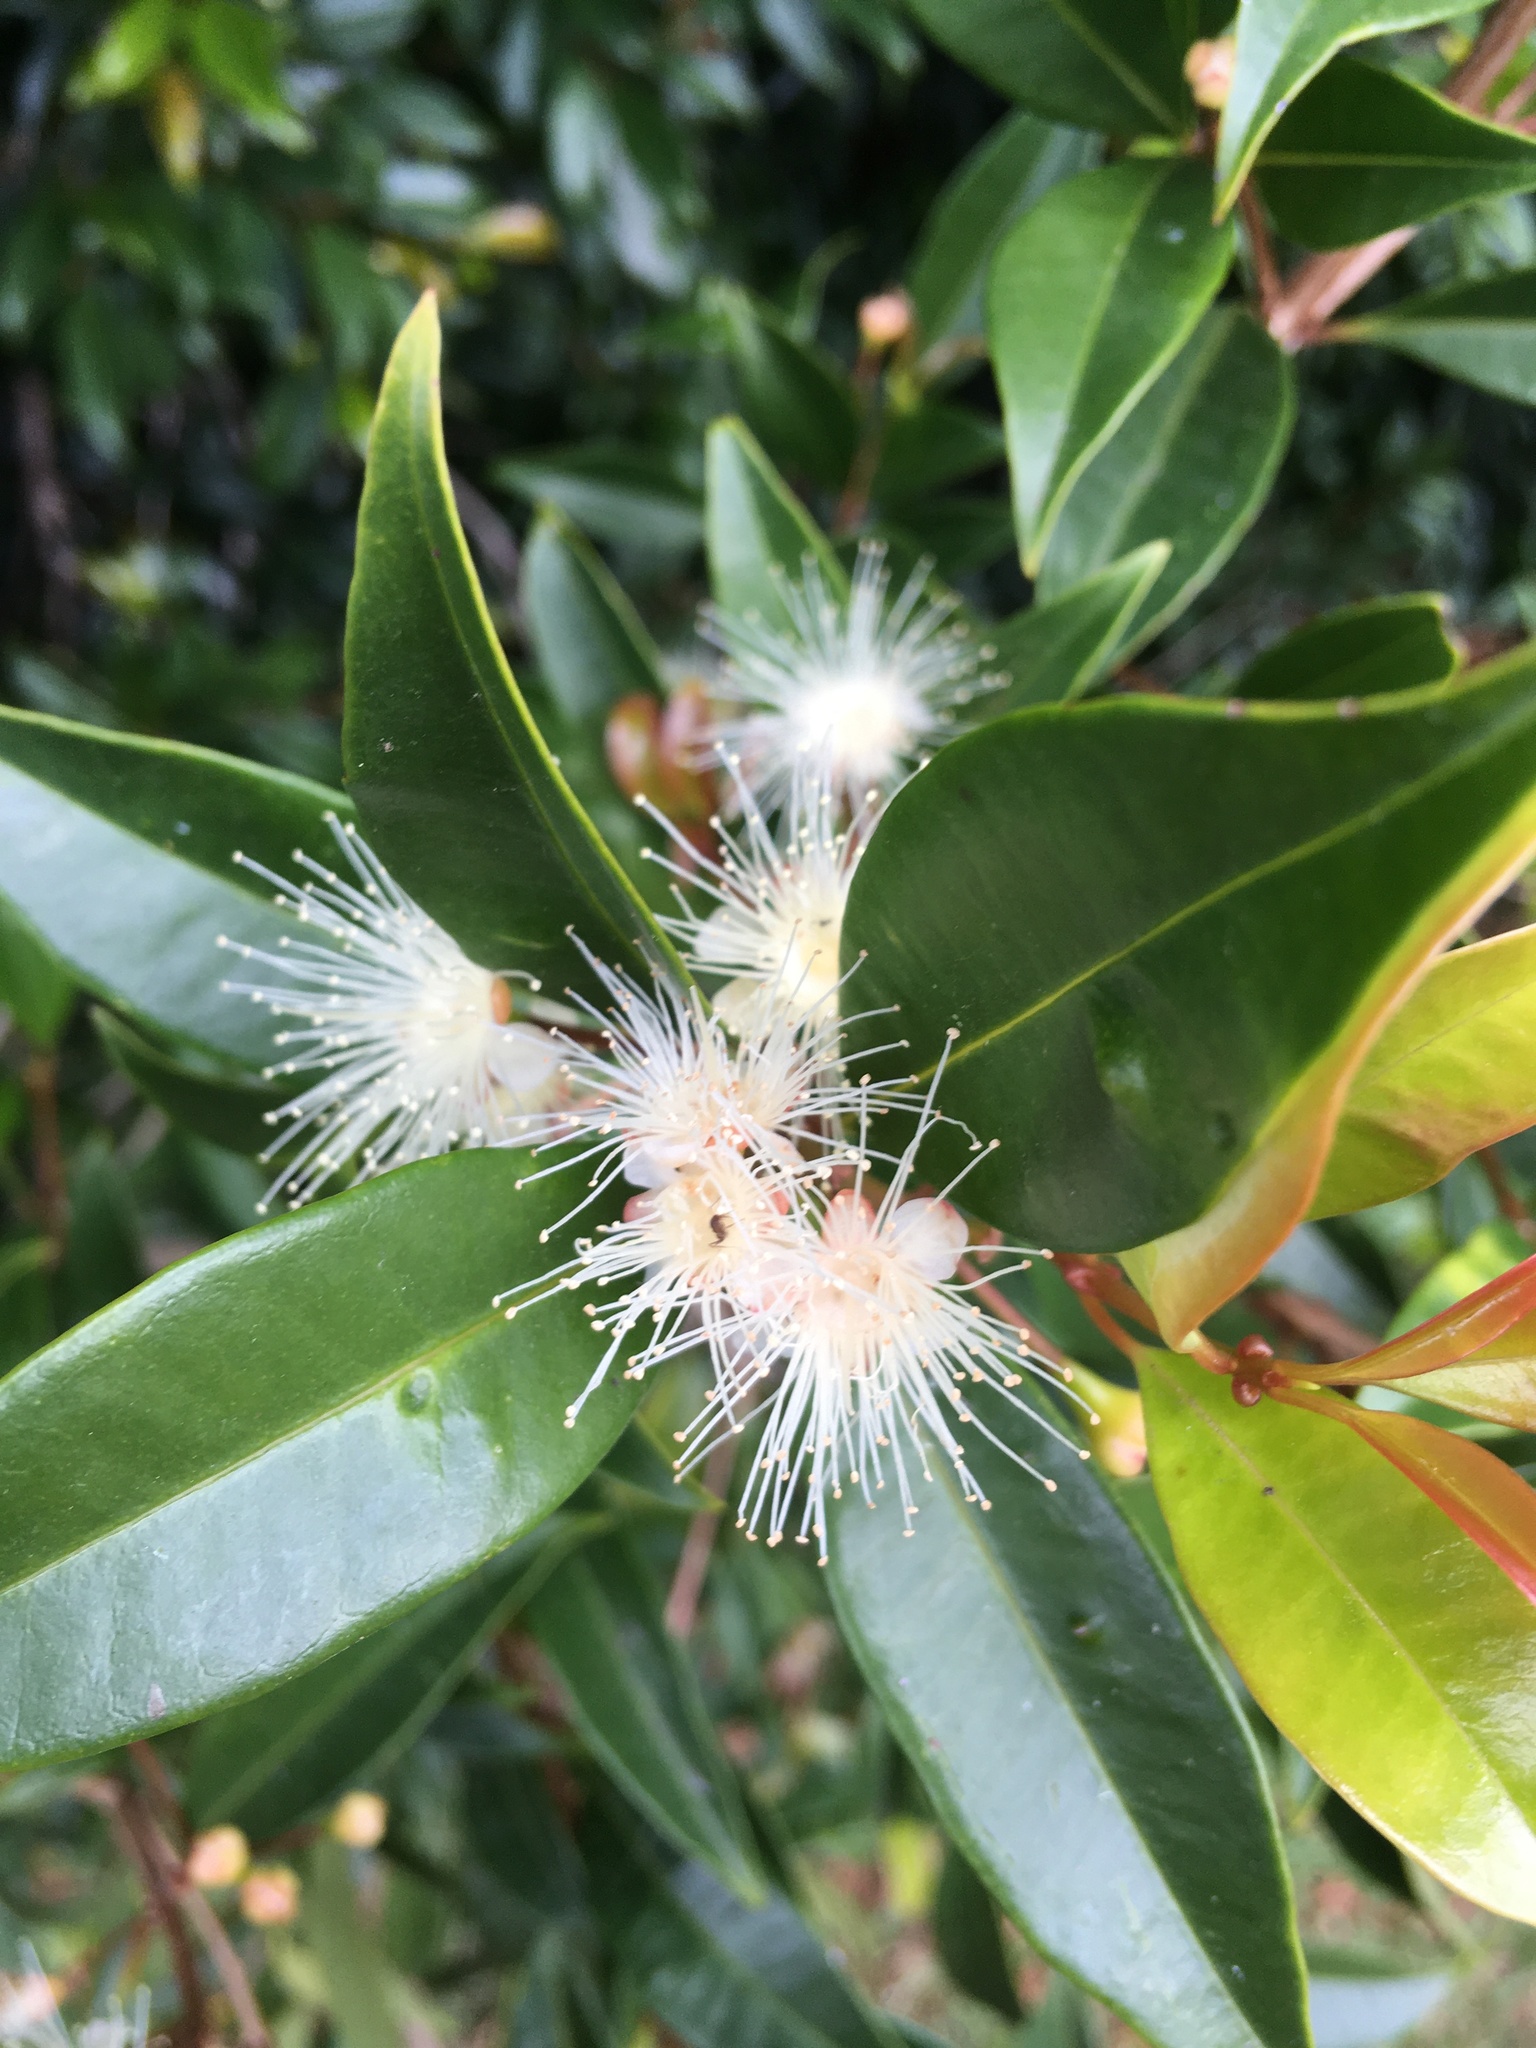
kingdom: Plantae
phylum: Tracheophyta
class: Magnoliopsida
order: Myrtales
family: Myrtaceae
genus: Syzygium
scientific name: Syzygium smithii
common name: Lilly-pilly
